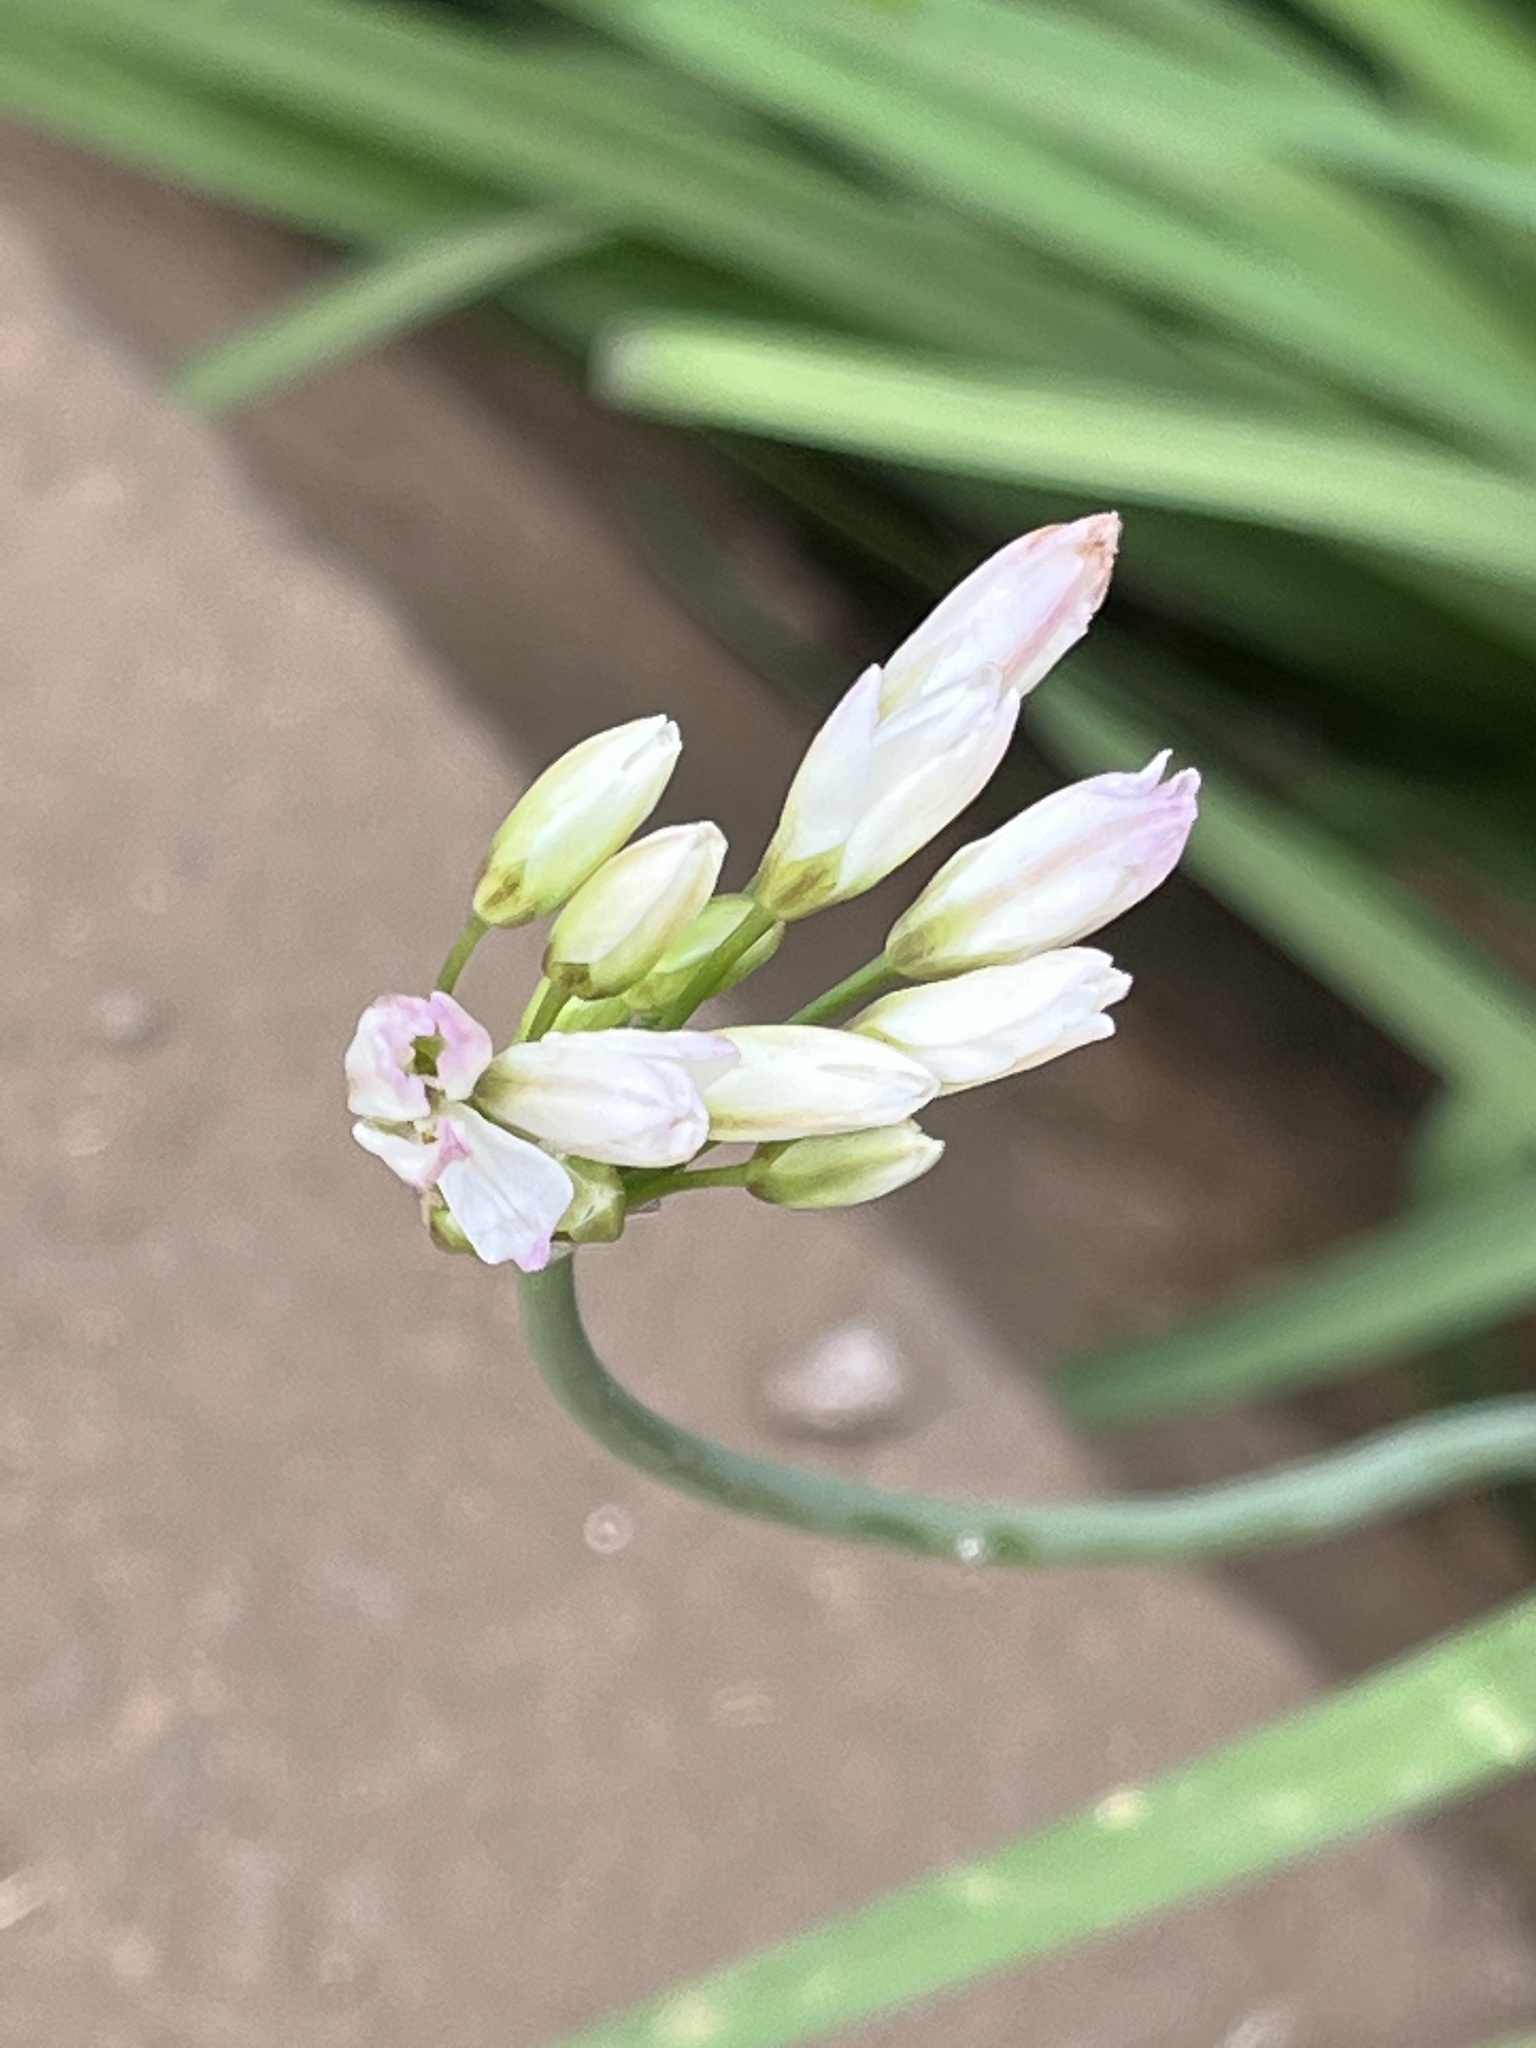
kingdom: Plantae
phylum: Tracheophyta
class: Liliopsida
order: Asparagales
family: Amaryllidaceae
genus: Nothoscordum
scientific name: Nothoscordum gracile
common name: Slender false garlic
